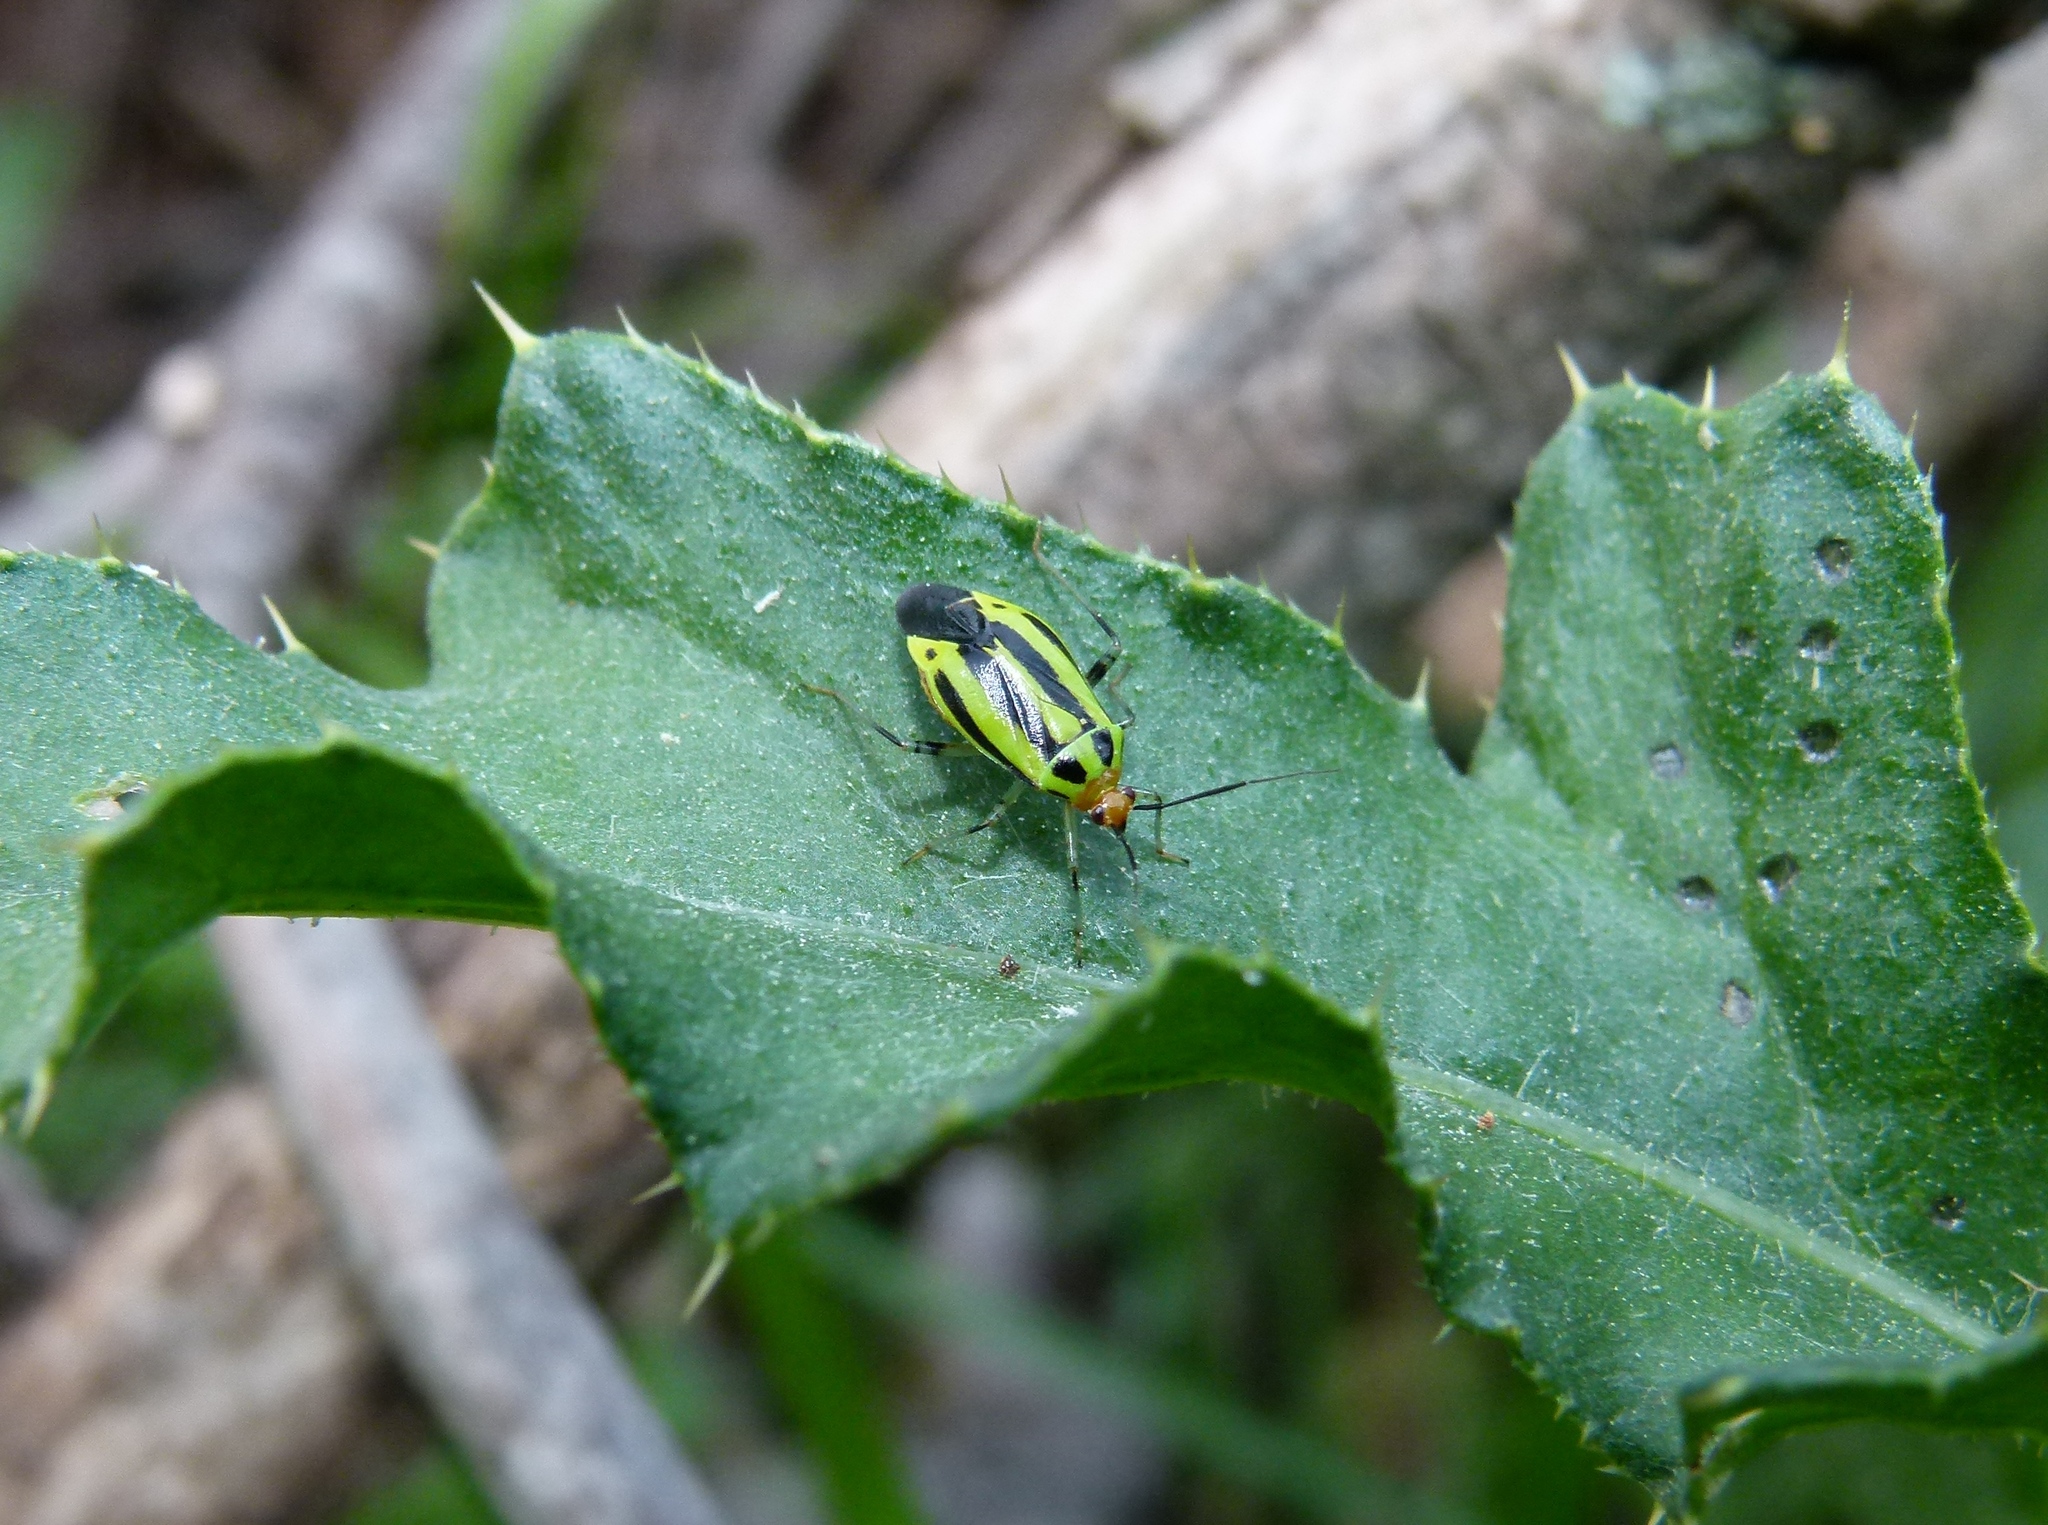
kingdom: Animalia
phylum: Arthropoda
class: Insecta
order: Hemiptera
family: Miridae
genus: Poecilocapsus
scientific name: Poecilocapsus lineatus
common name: Four-lined plant bug
